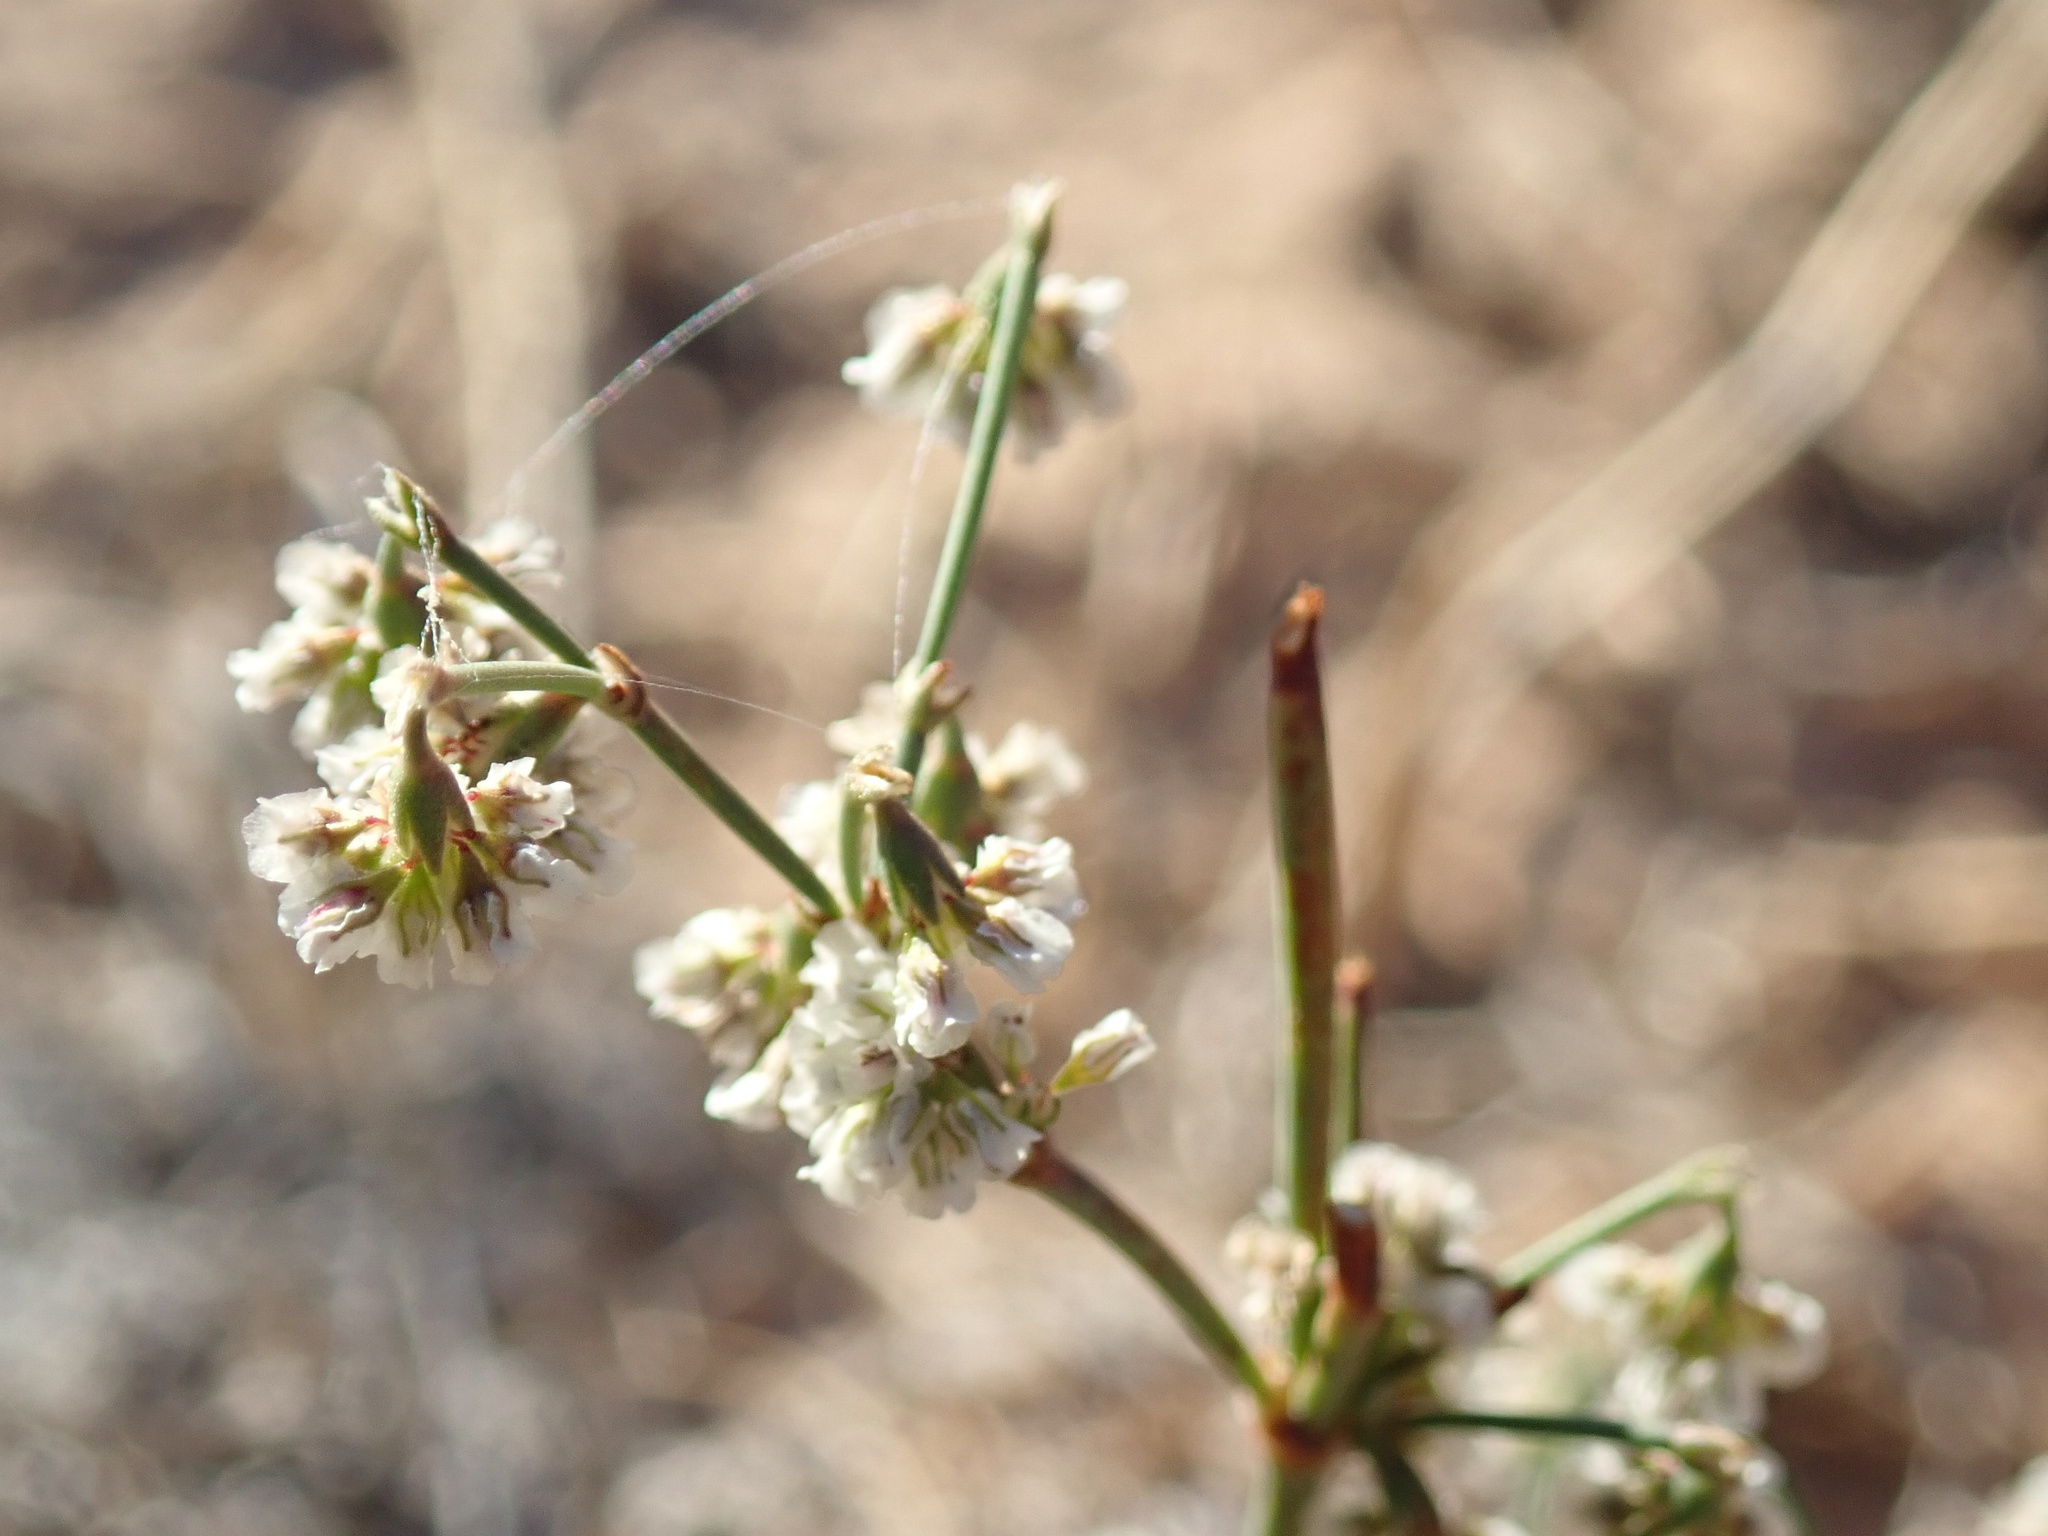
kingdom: Plantae
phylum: Tracheophyta
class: Magnoliopsida
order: Caryophyllales
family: Polygonaceae
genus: Eriogonum
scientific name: Eriogonum cernuum
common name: Nodding wild buckwheat
